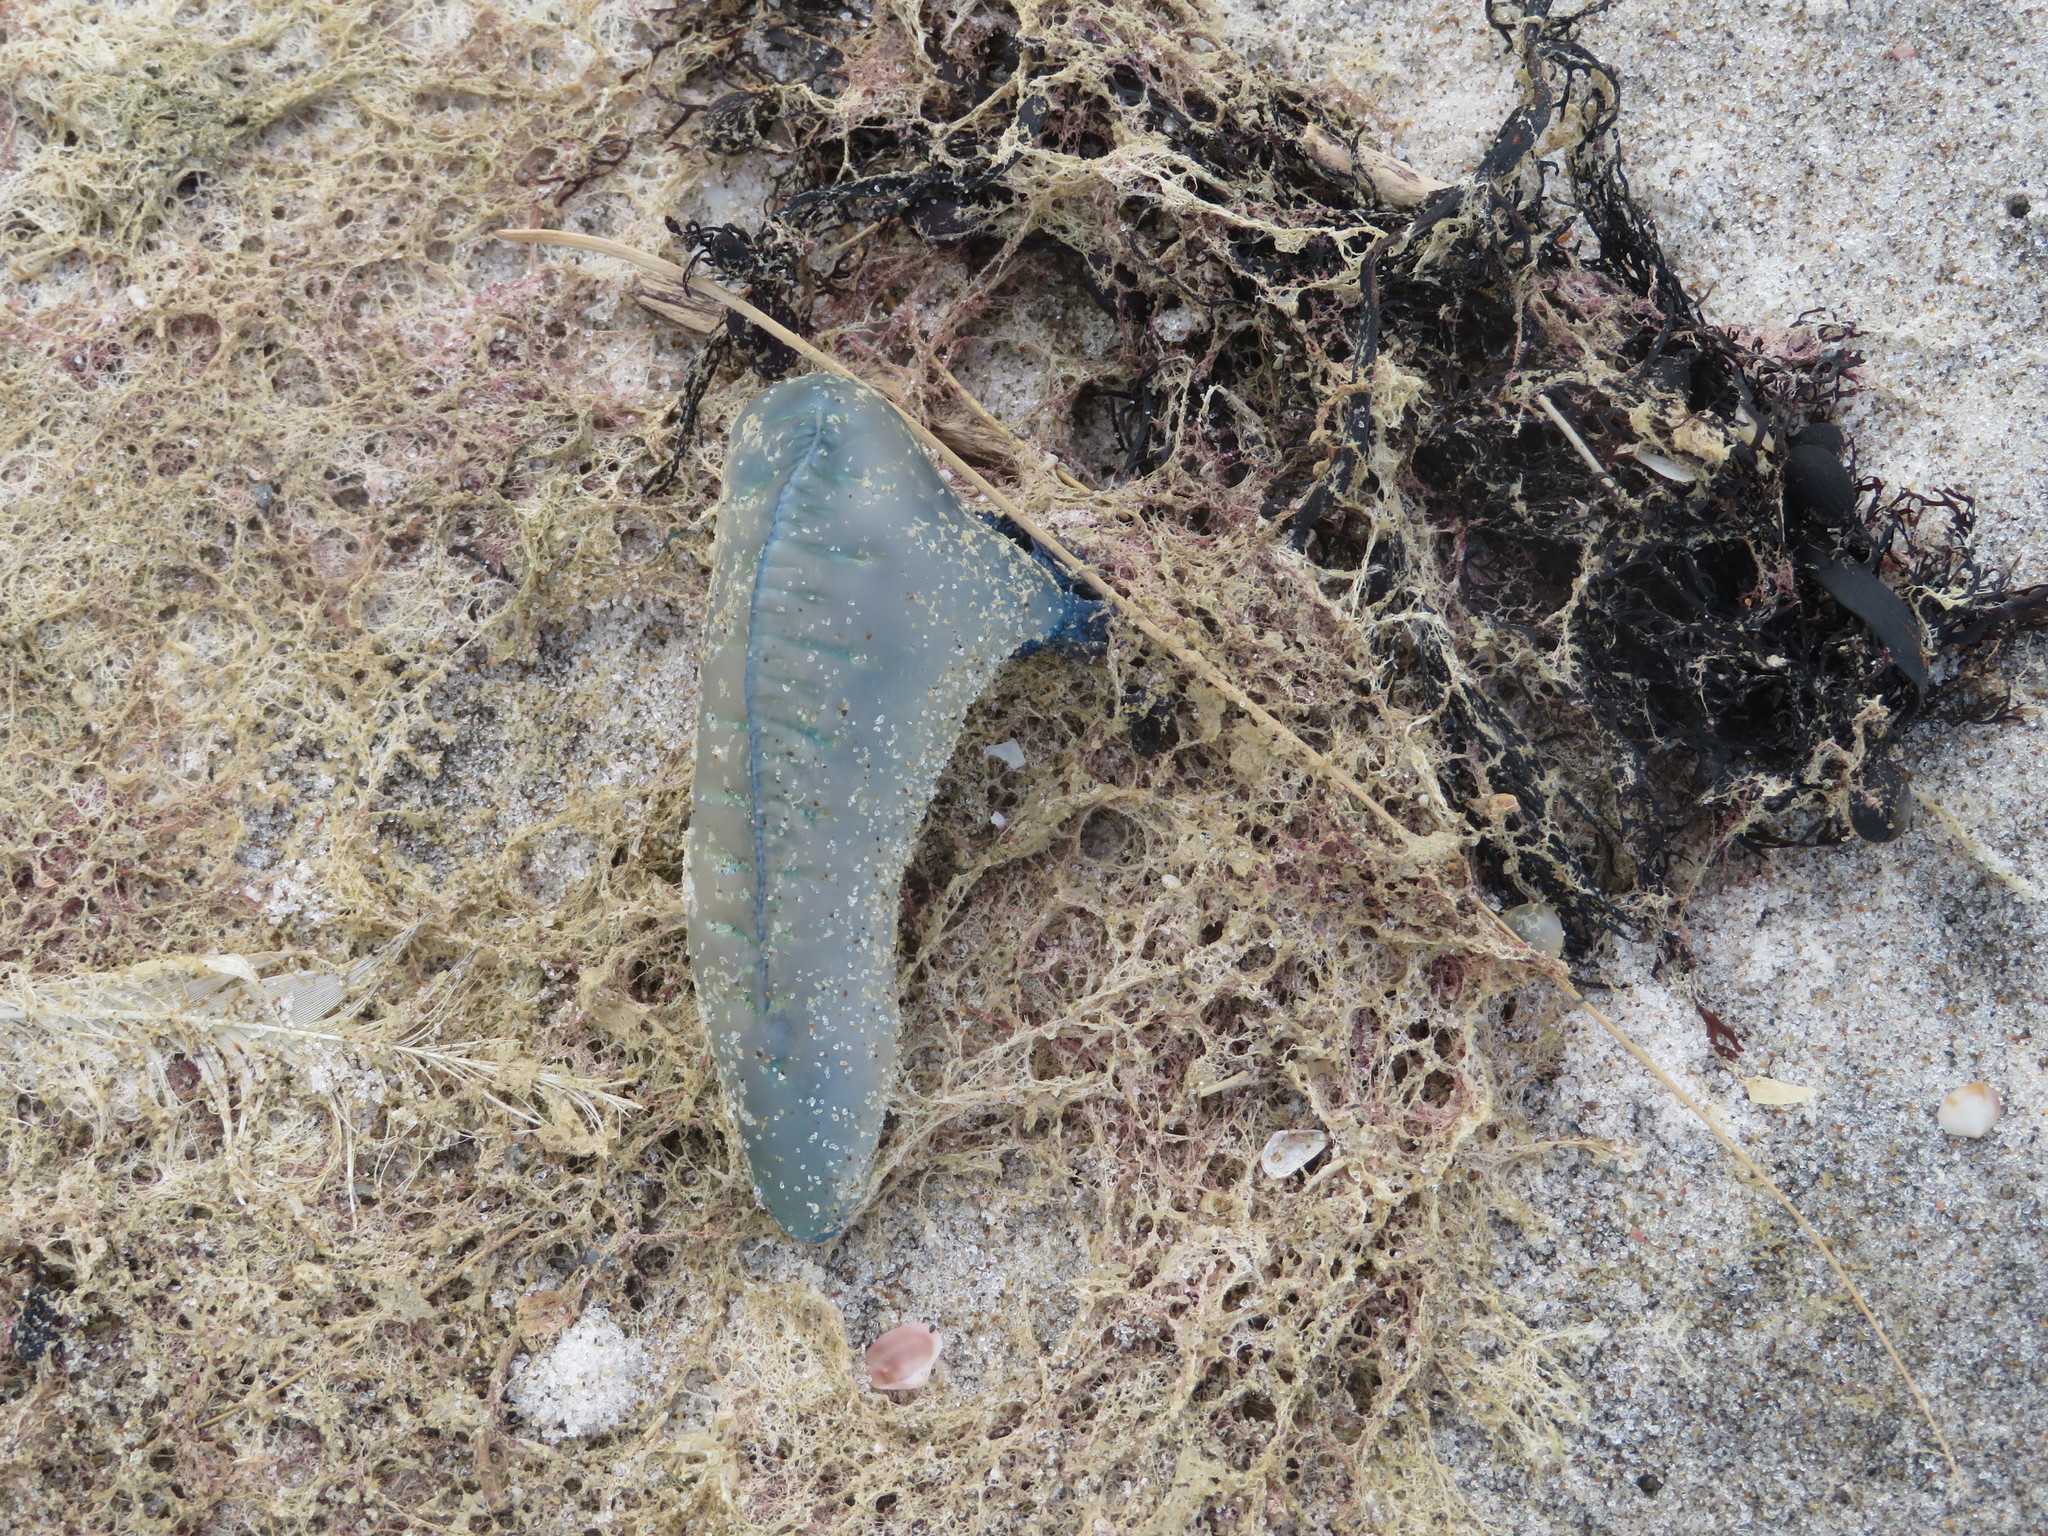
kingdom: Animalia
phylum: Cnidaria
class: Hydrozoa
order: Siphonophorae
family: Physaliidae
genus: Physalia
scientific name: Physalia physalis
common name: Portuguese man-of-war
